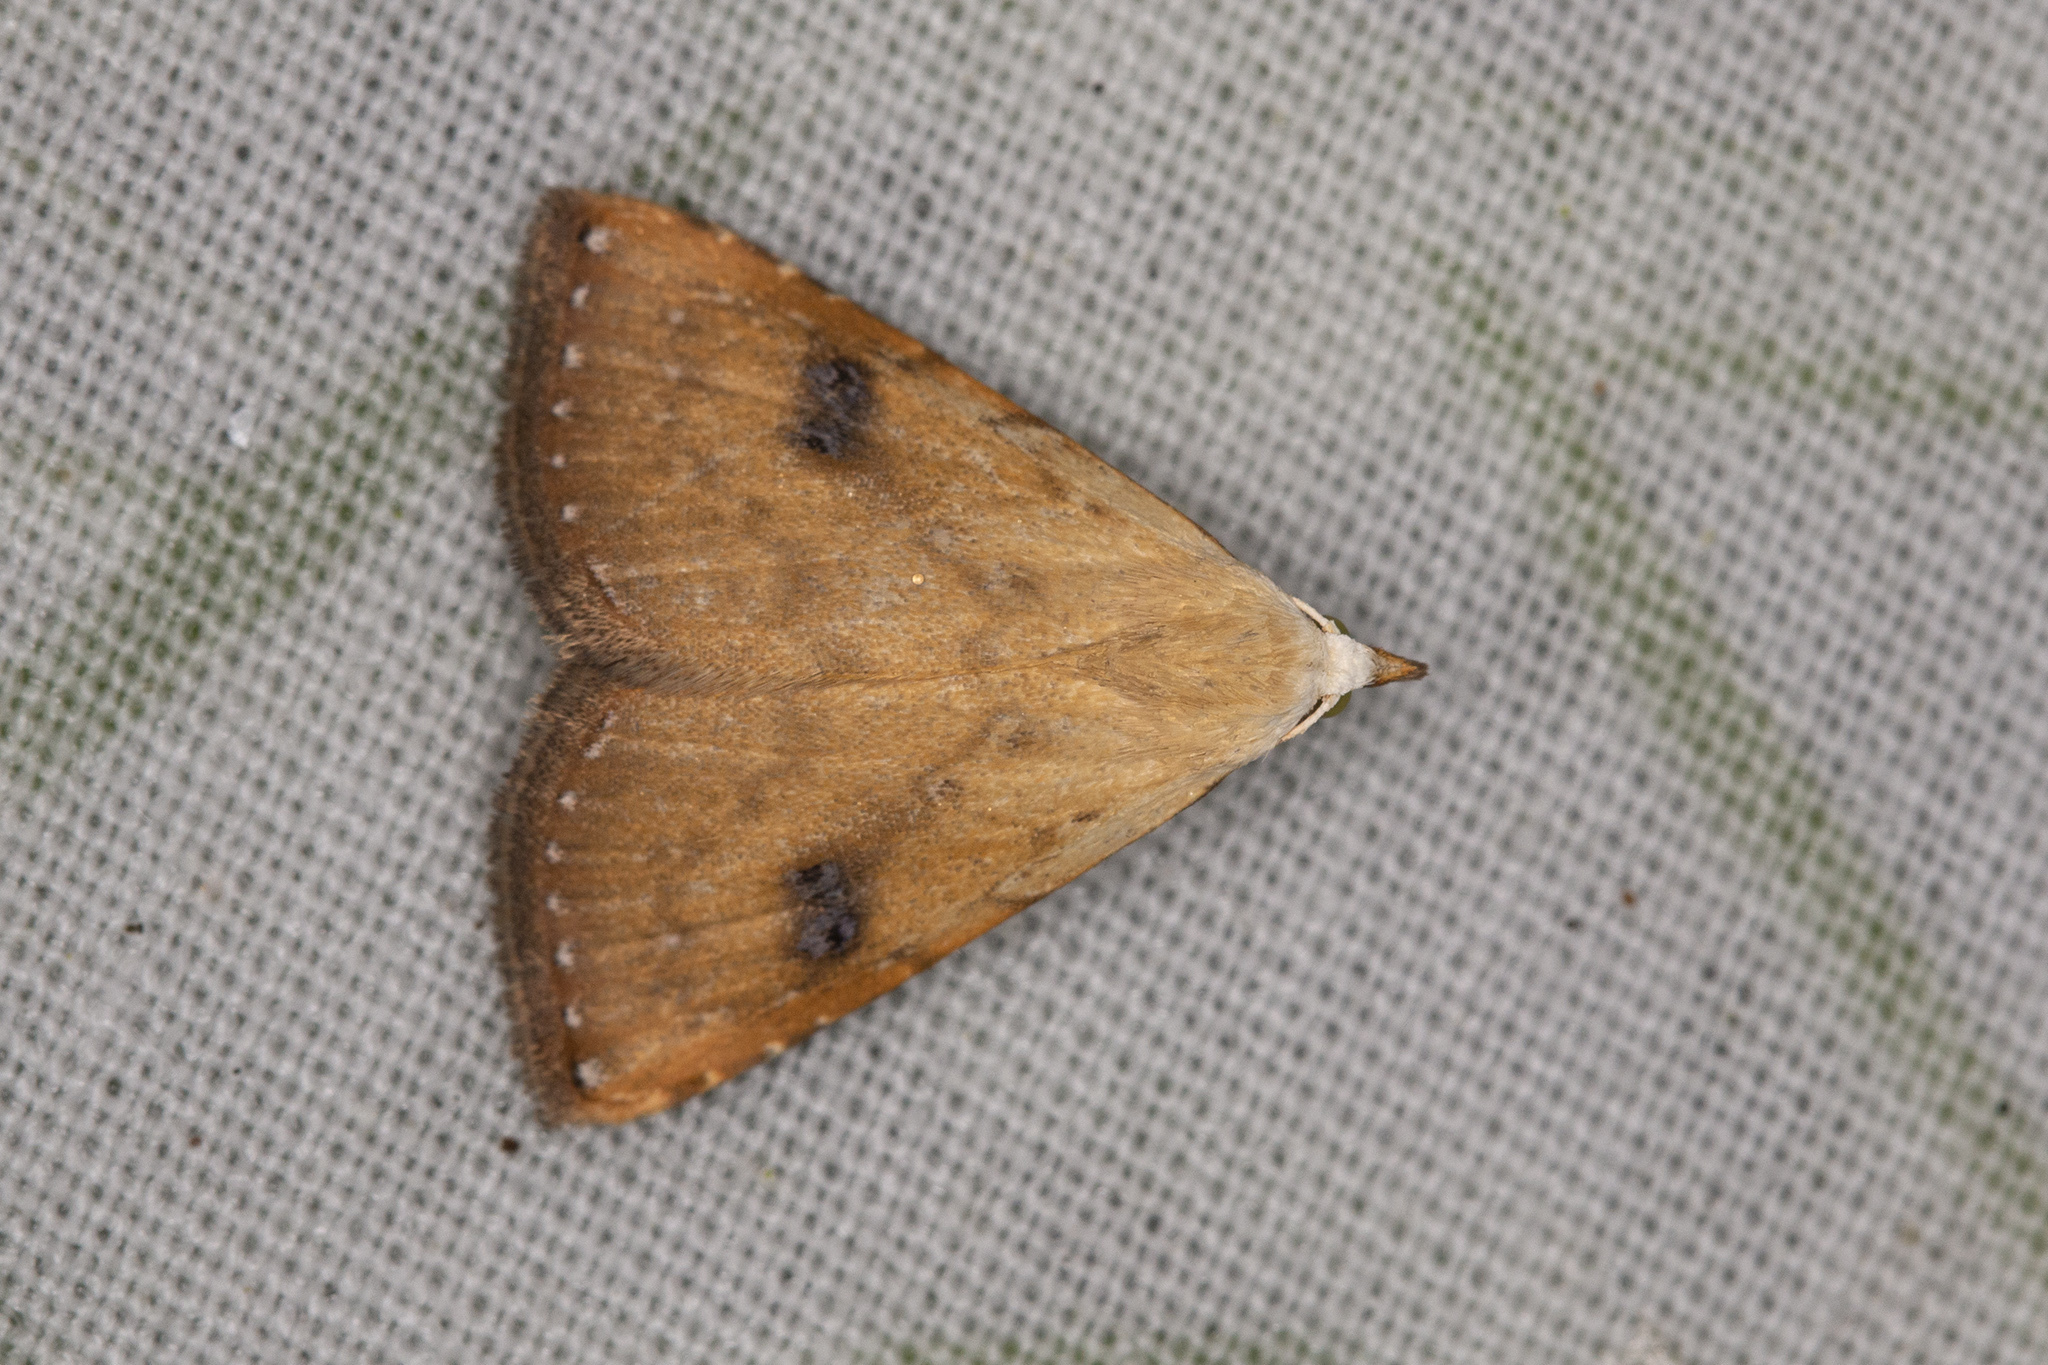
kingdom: Animalia
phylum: Arthropoda
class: Insecta
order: Lepidoptera
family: Erebidae
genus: Rivula
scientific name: Rivula sericealis
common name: Straw dot
